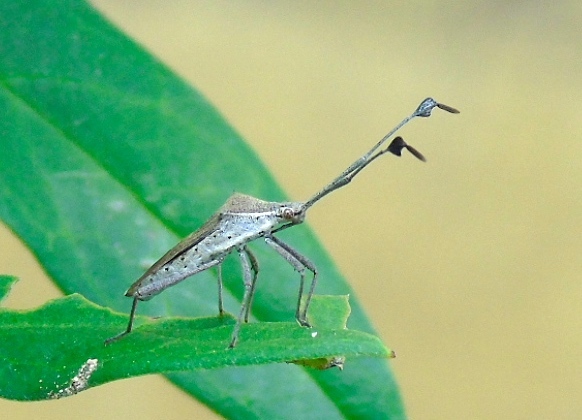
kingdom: Animalia
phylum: Arthropoda
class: Insecta
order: Hemiptera
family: Coreidae
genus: Chariesterus
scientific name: Chariesterus
